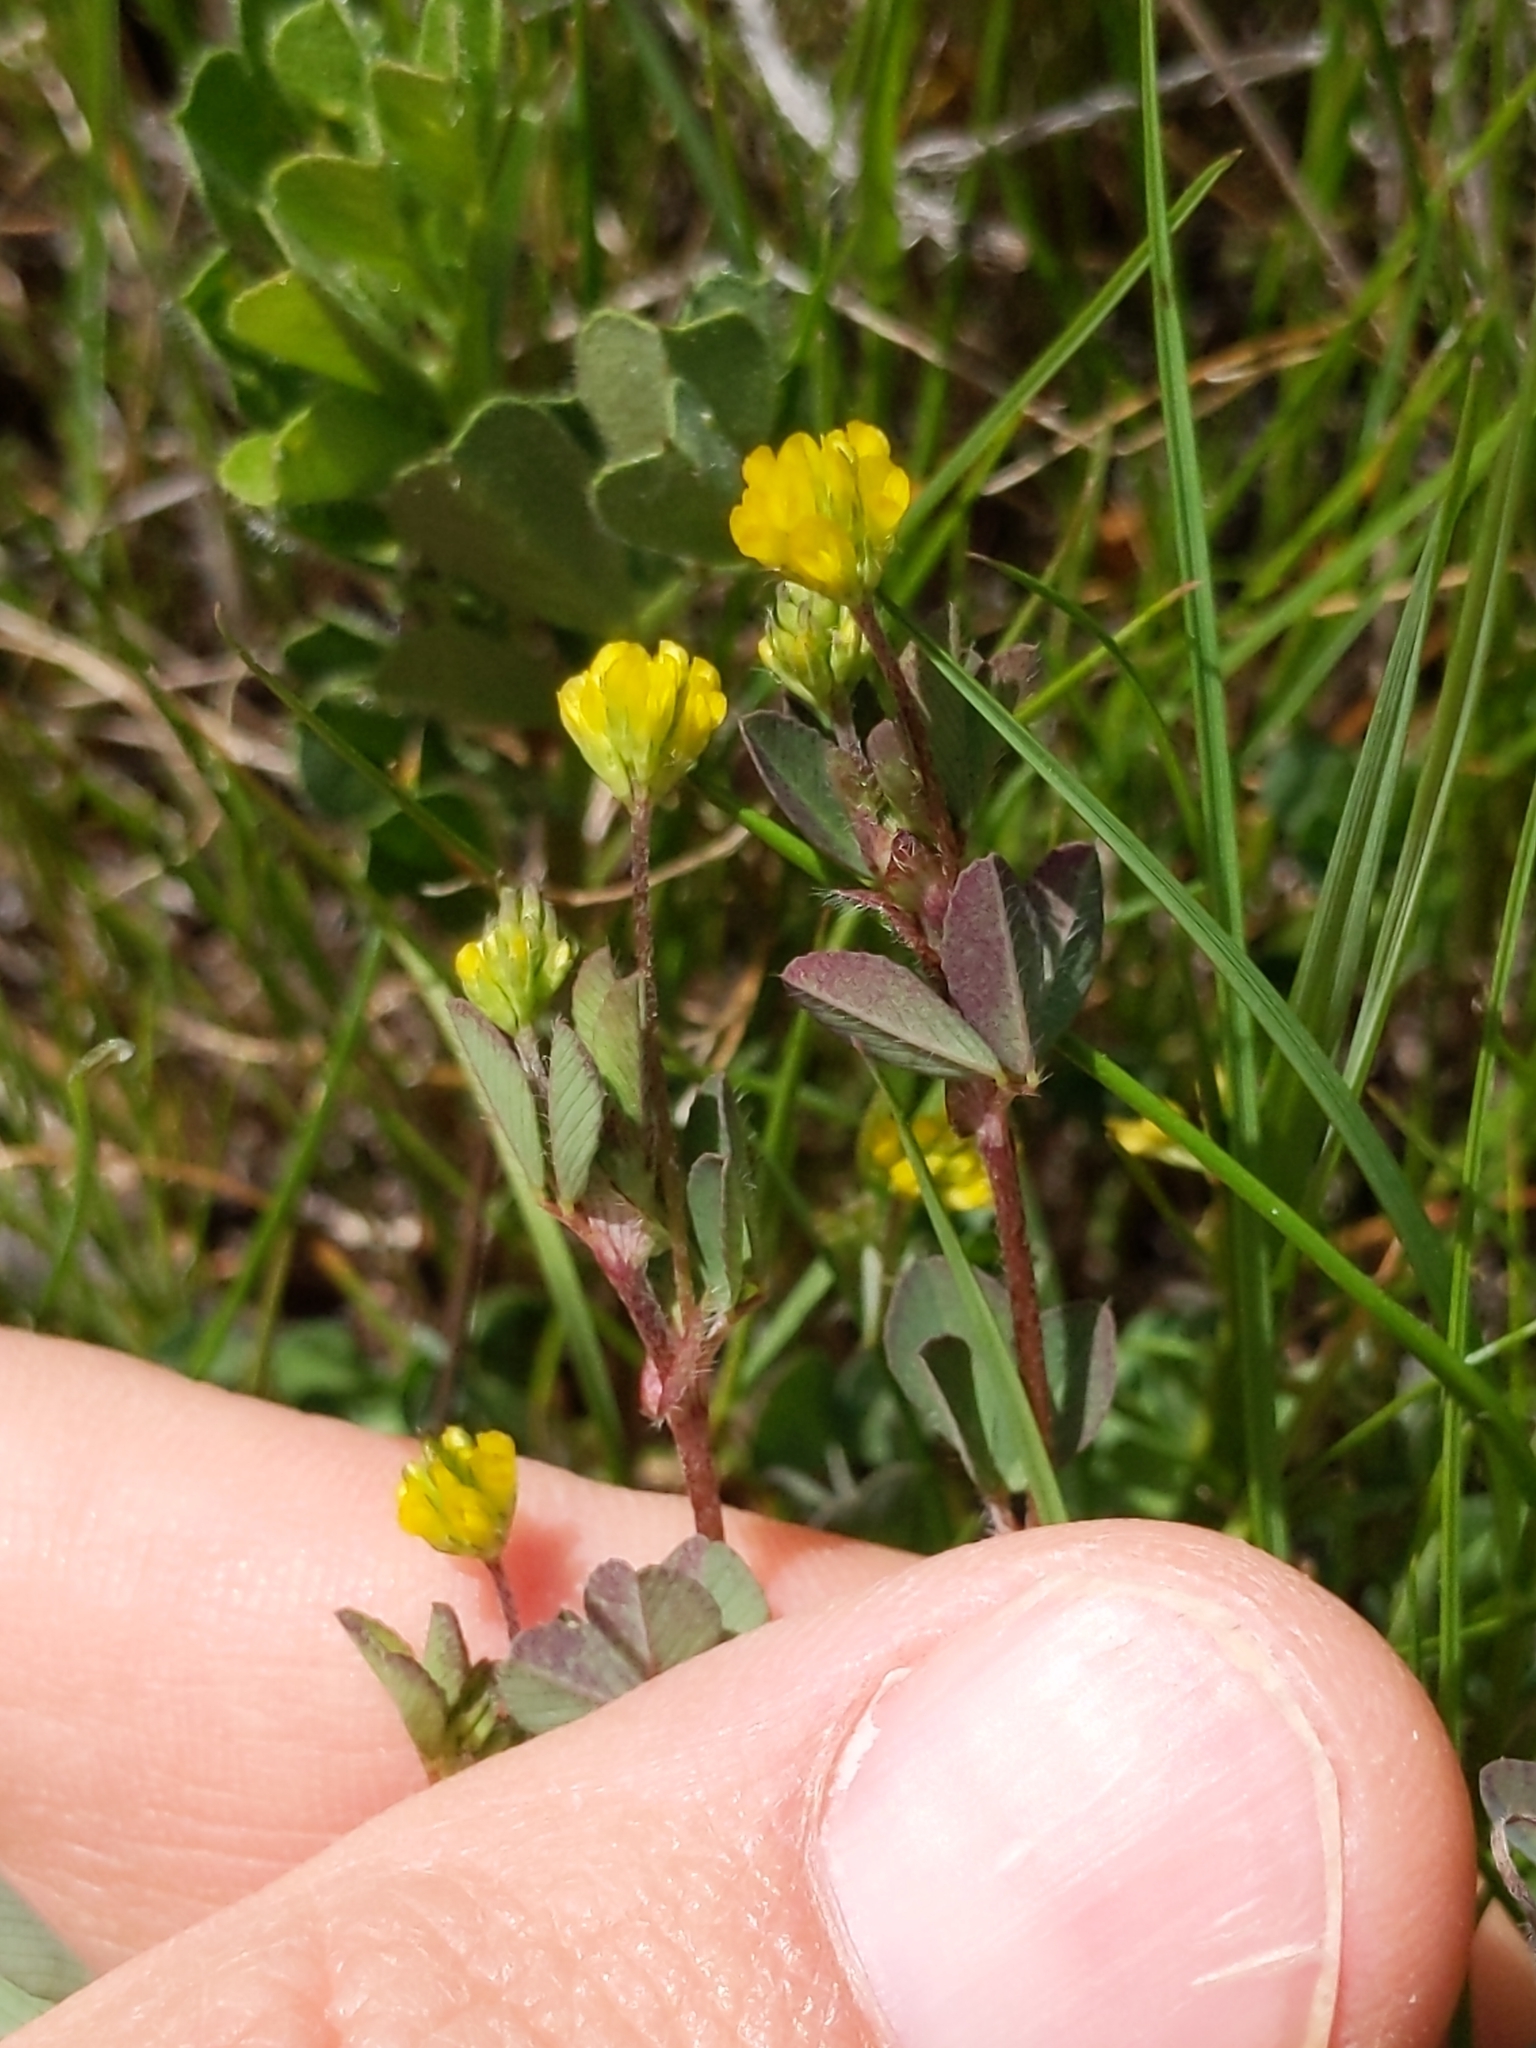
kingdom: Plantae
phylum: Tracheophyta
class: Magnoliopsida
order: Fabales
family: Fabaceae
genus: Trifolium
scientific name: Trifolium dubium
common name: Suckling clover
